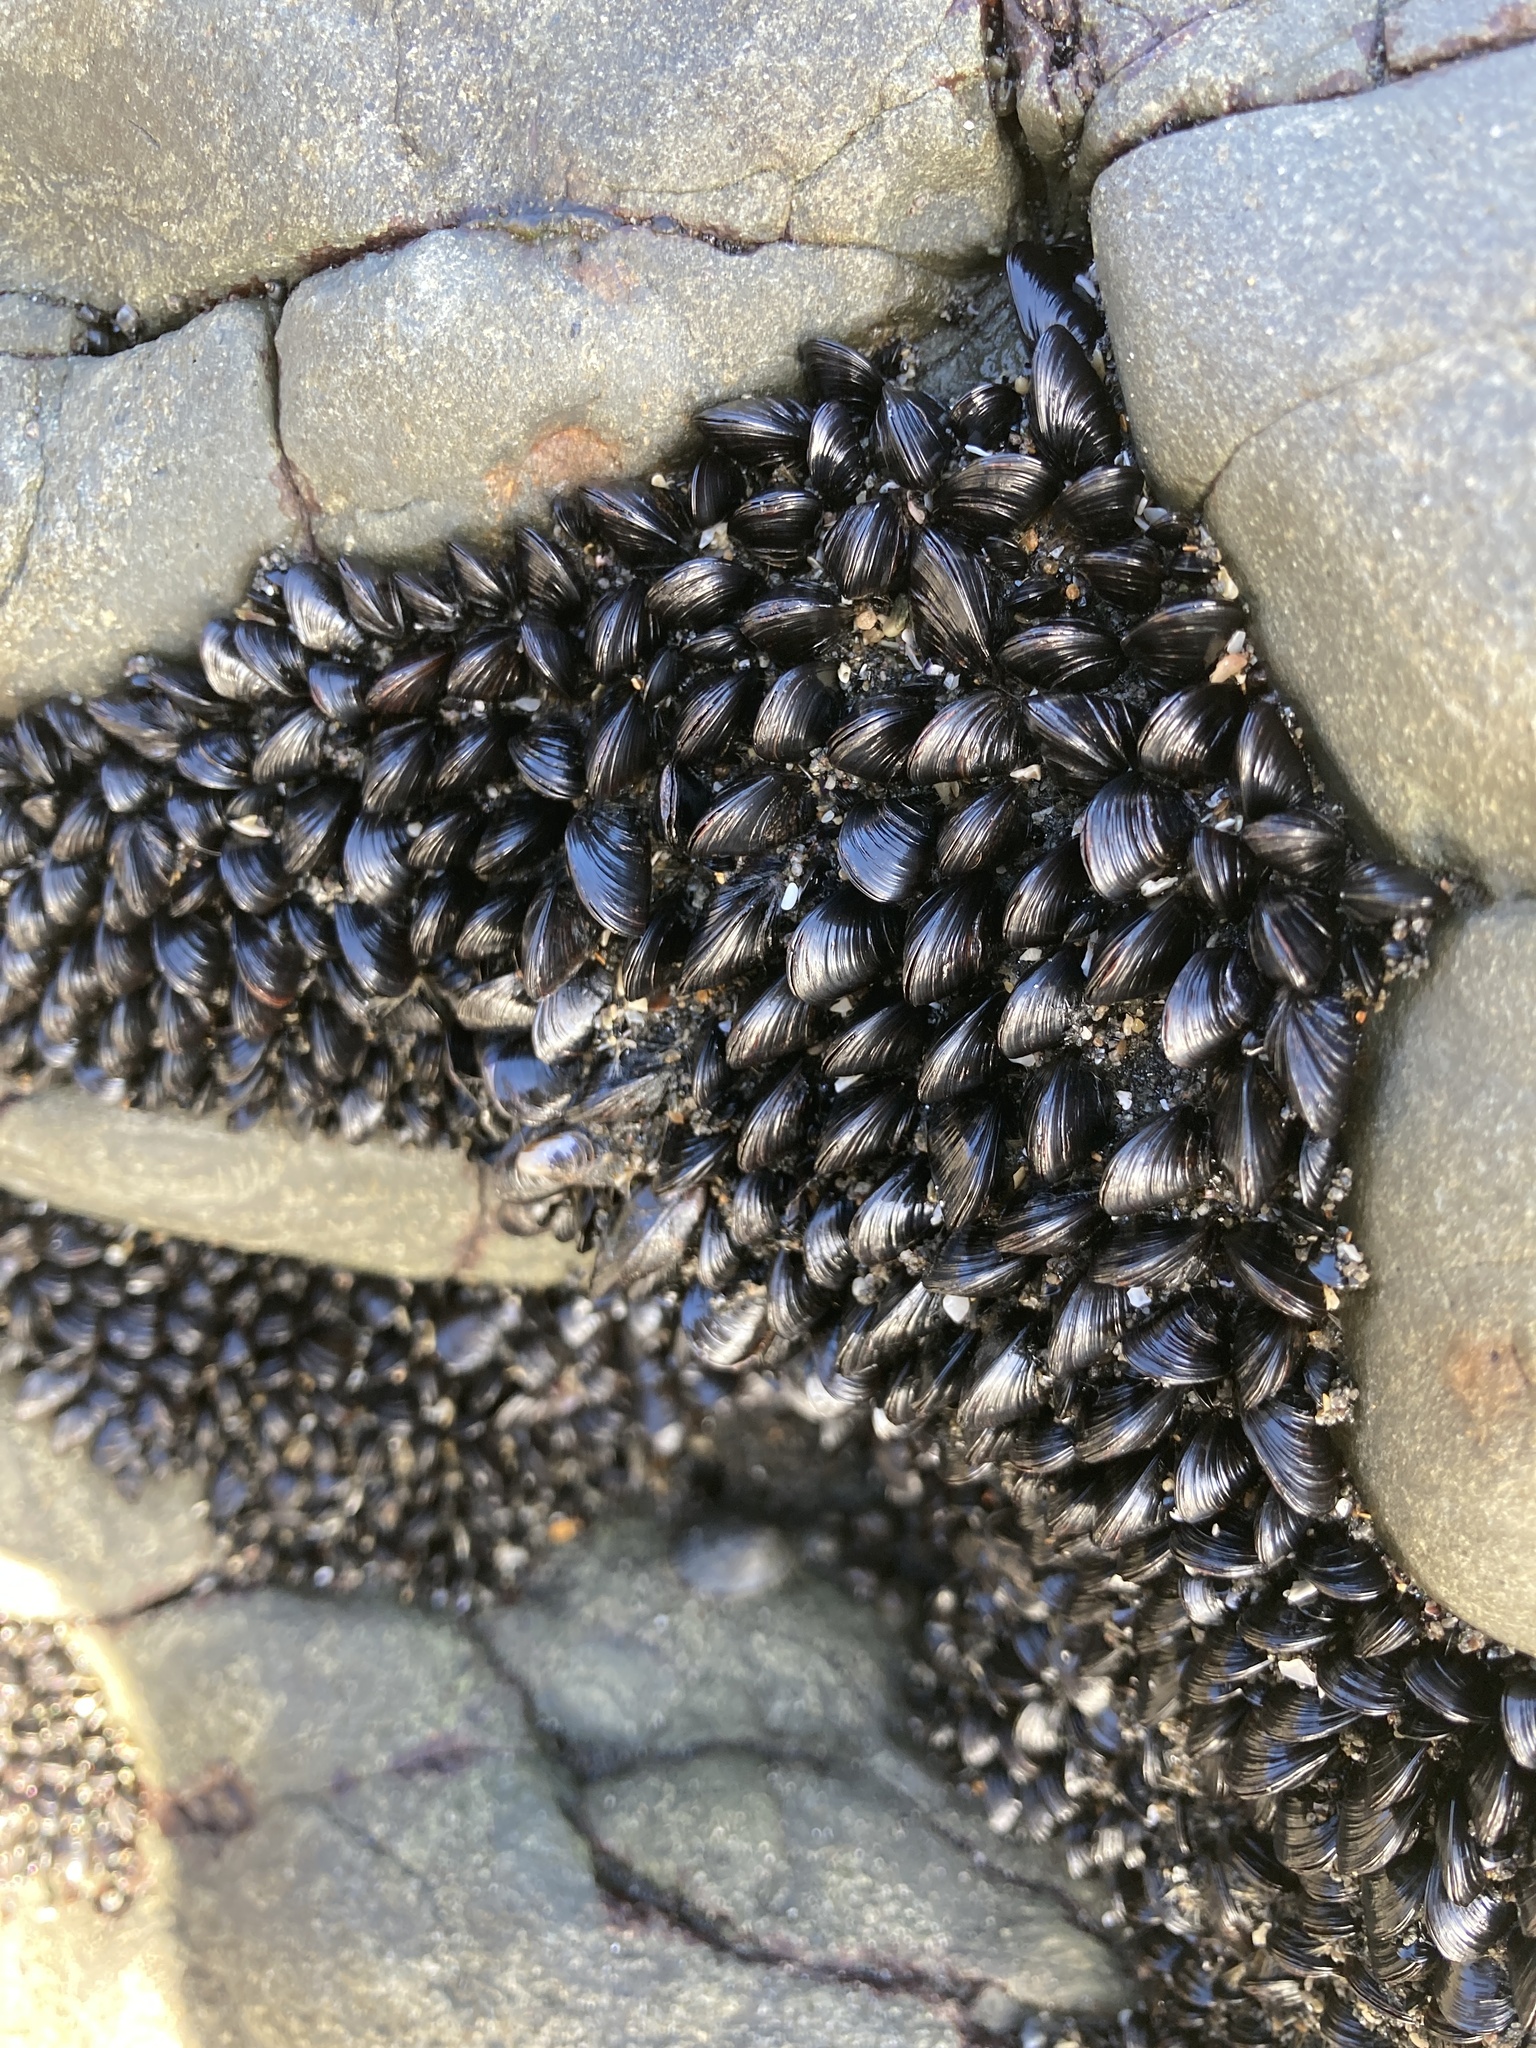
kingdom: Animalia
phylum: Mollusca
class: Bivalvia
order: Mytilida
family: Mytilidae
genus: Xenostrobus
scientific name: Xenostrobus neozelanicus
